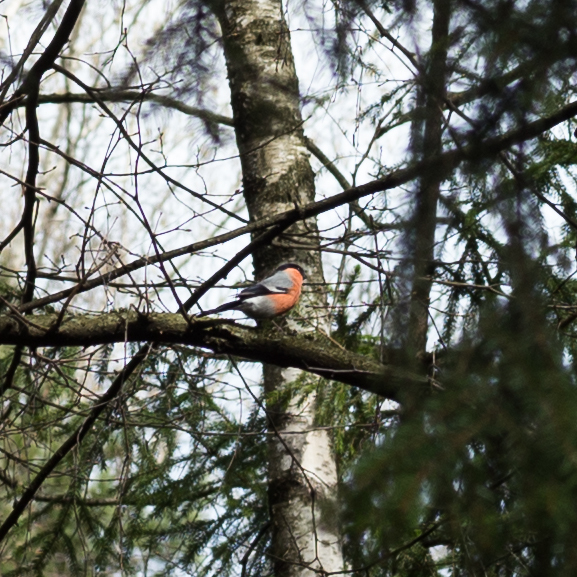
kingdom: Animalia
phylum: Chordata
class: Aves
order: Passeriformes
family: Fringillidae
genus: Pyrrhula
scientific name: Pyrrhula pyrrhula
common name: Eurasian bullfinch
